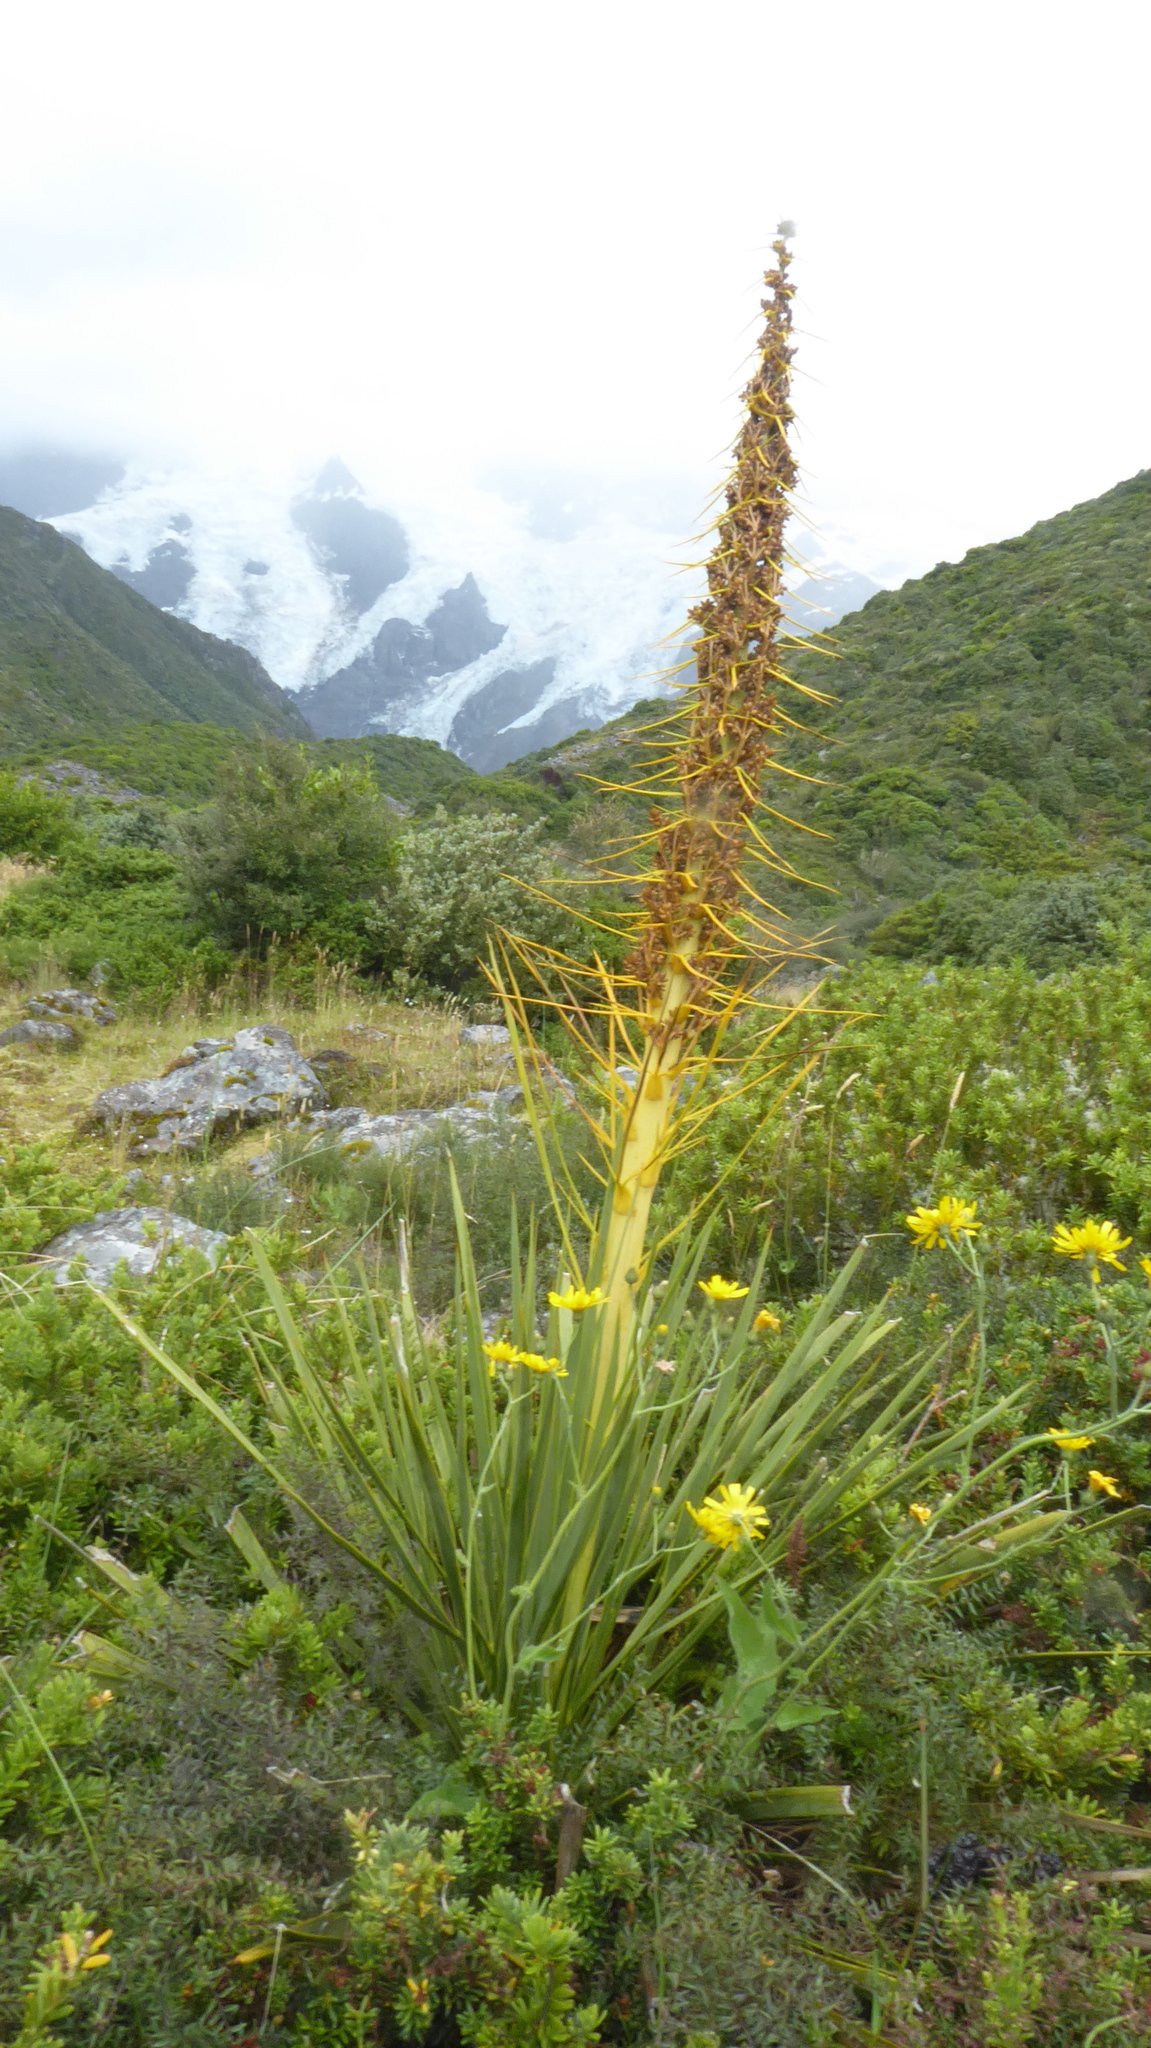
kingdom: Plantae
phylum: Tracheophyta
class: Magnoliopsida
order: Apiales
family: Apiaceae
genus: Aciphylla
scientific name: Aciphylla aurea
